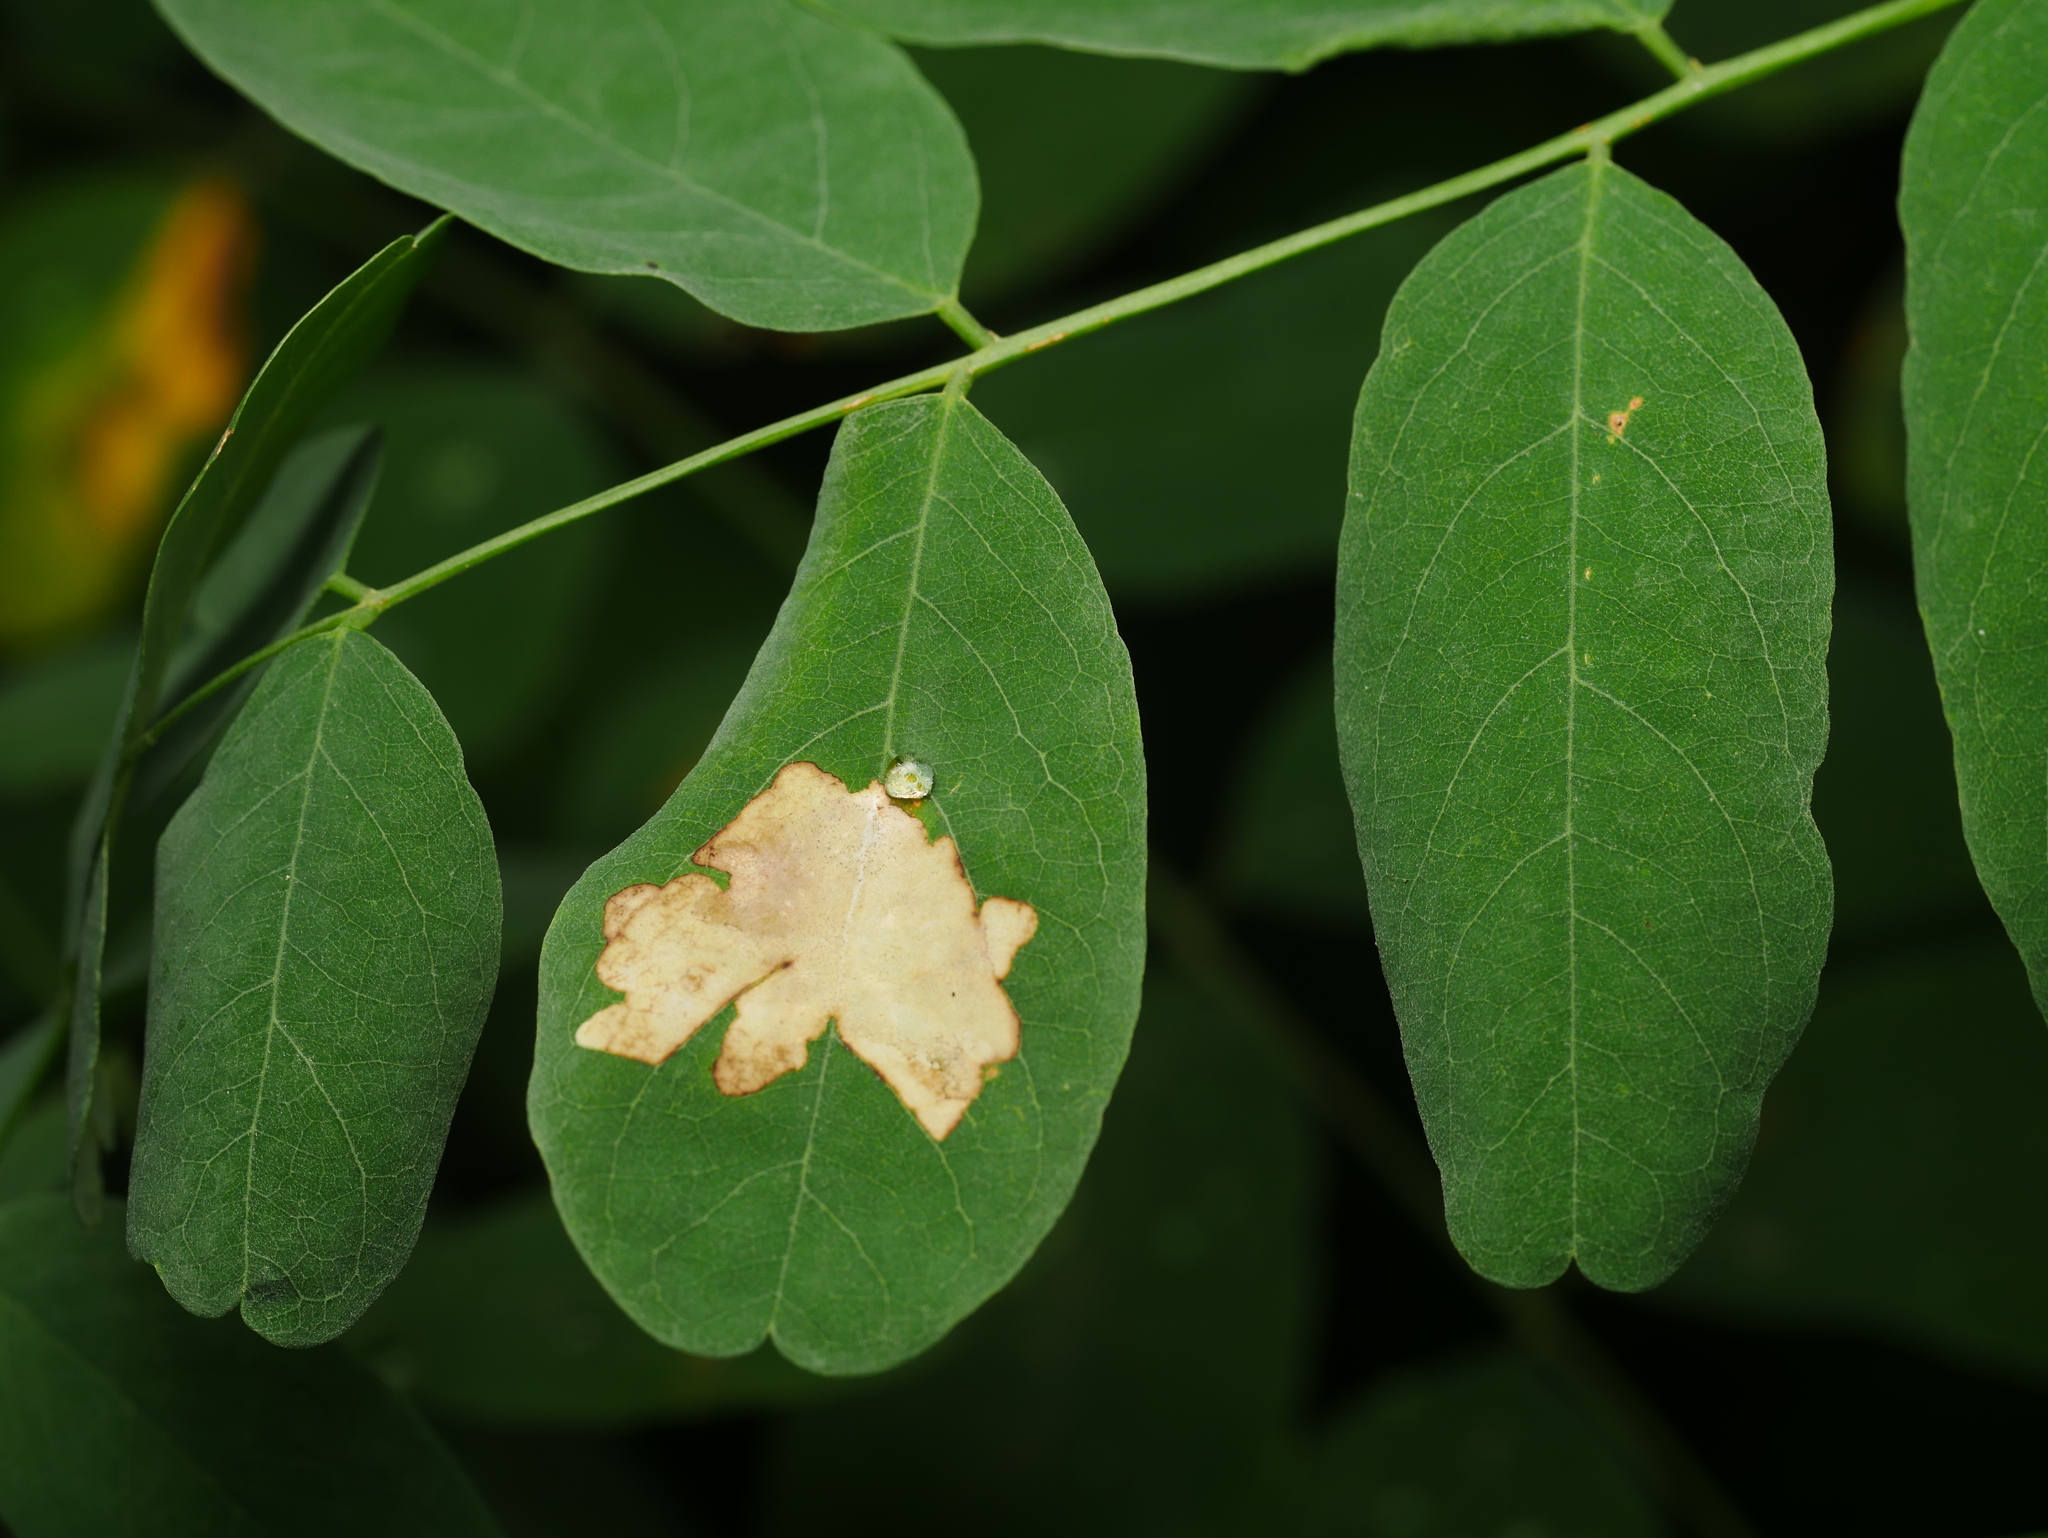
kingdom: Animalia
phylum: Arthropoda
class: Insecta
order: Lepidoptera
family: Gracillariidae
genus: Parectopa
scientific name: Parectopa robiniella
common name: Locust digitate leafminer
